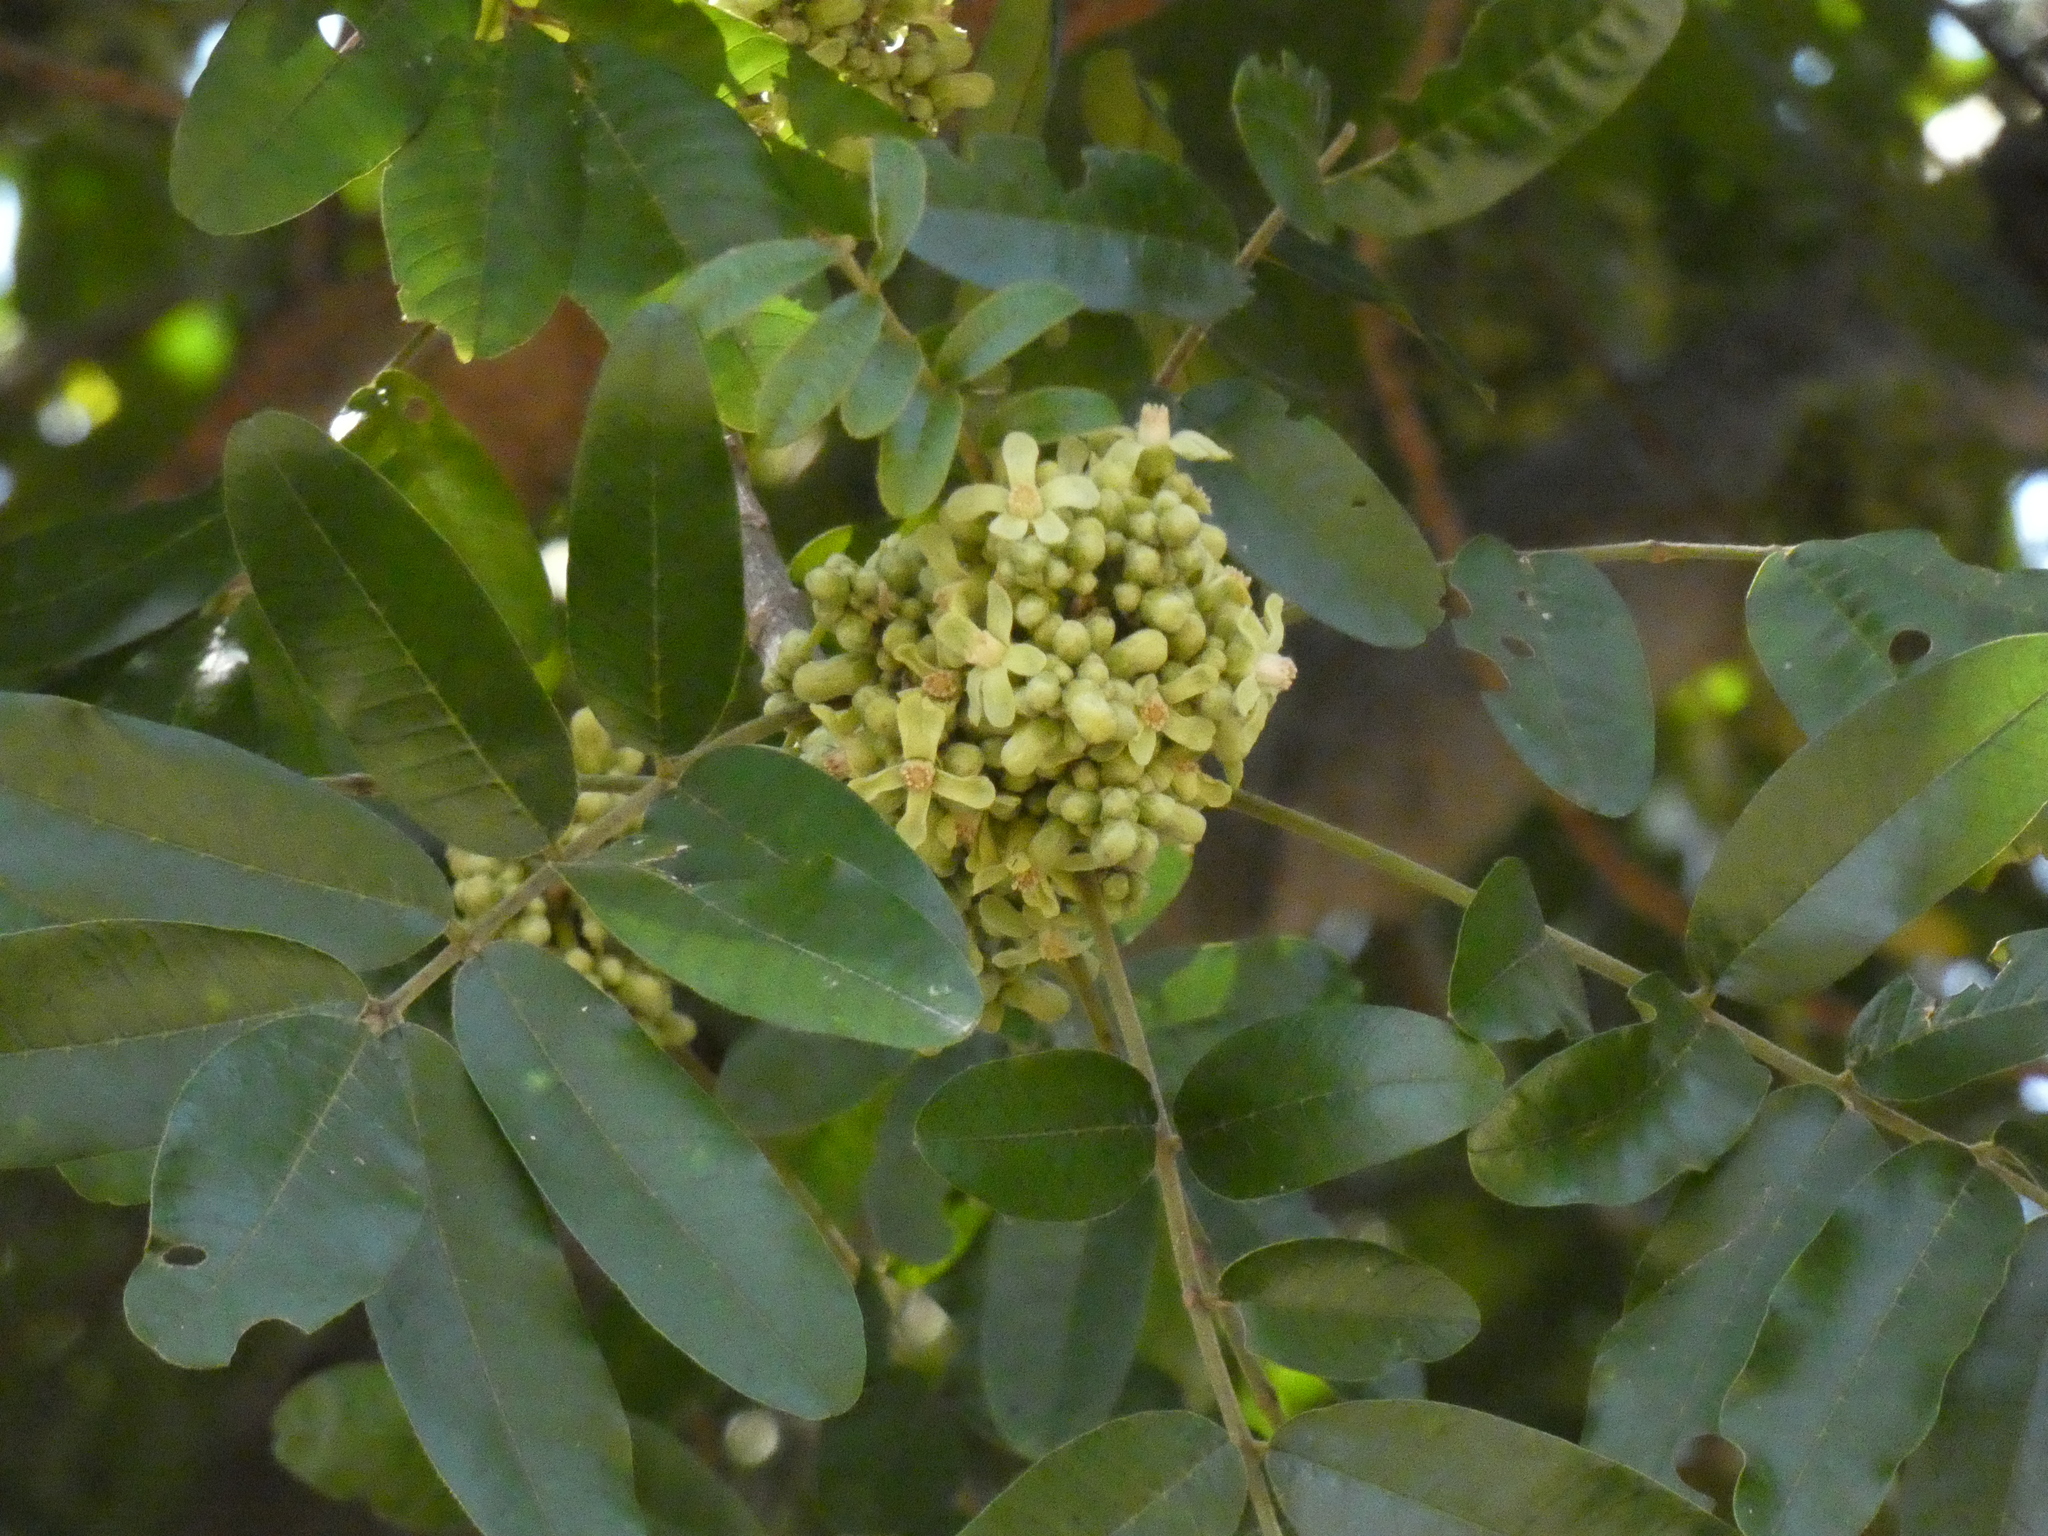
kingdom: Plantae
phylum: Tracheophyta
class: Magnoliopsida
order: Sapindales
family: Meliaceae
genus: Trichilia
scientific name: Trichilia emetica
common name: Christmas-bells
